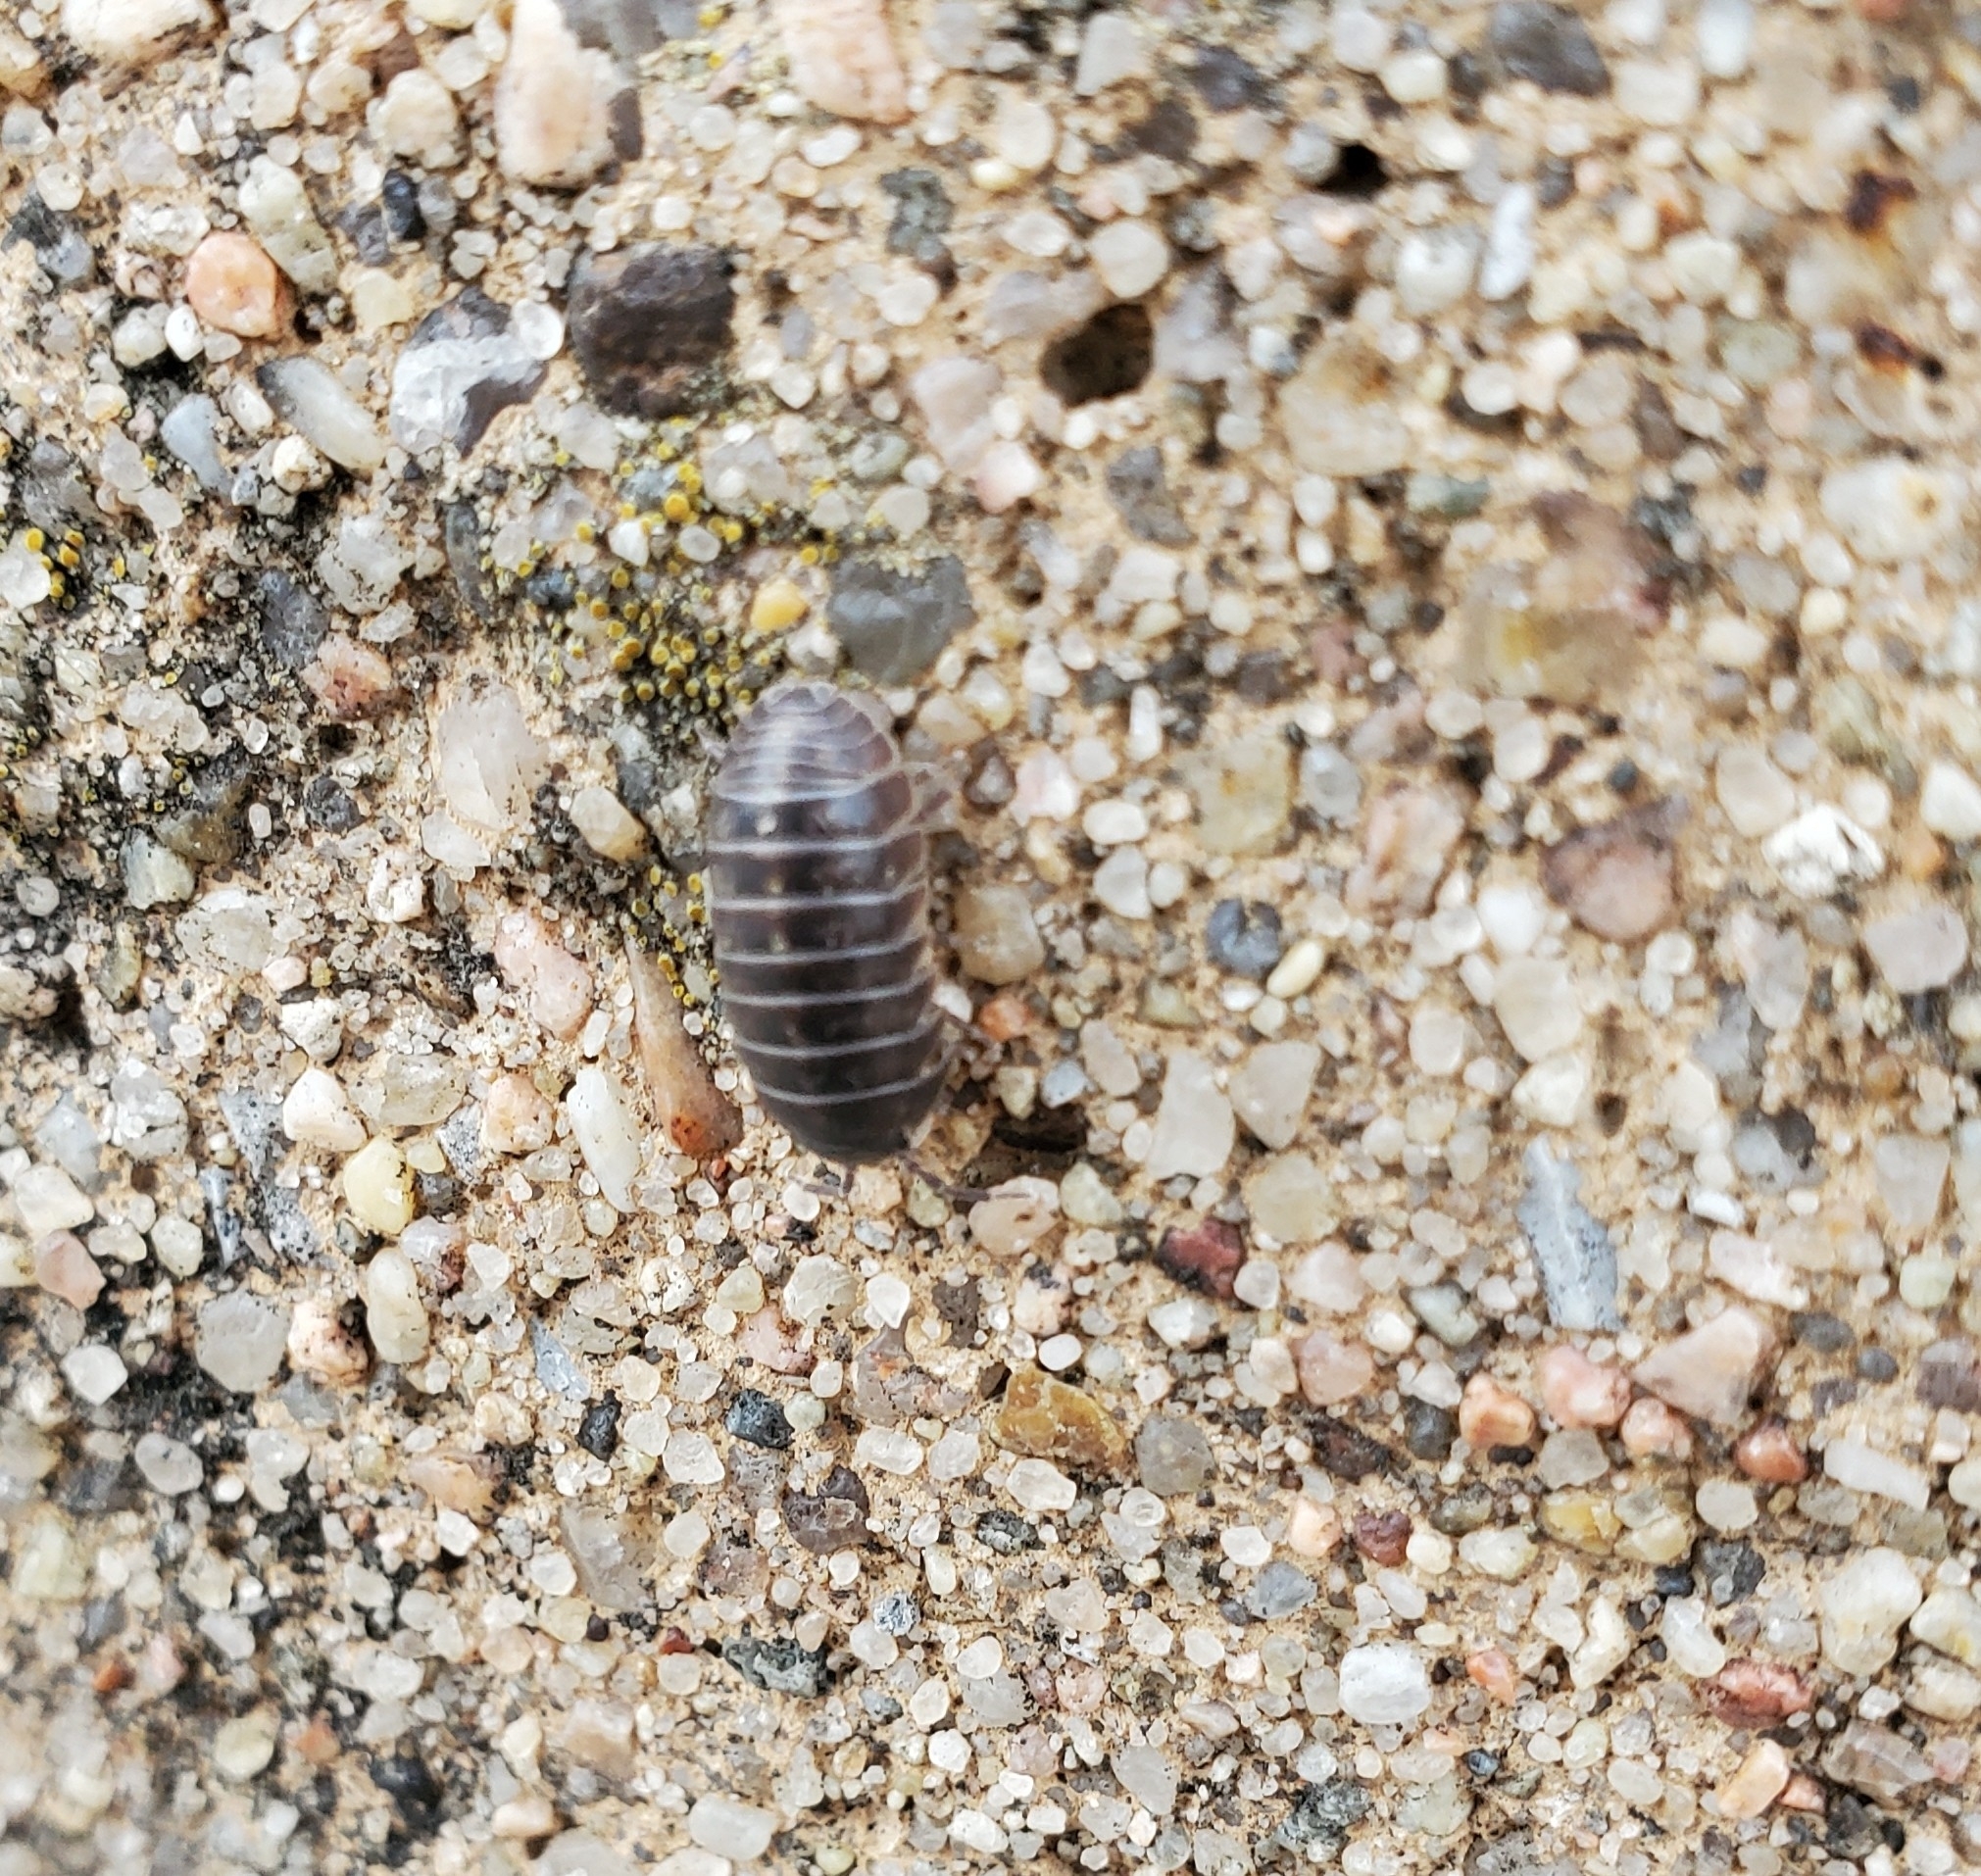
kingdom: Animalia
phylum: Arthropoda
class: Malacostraca
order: Isopoda
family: Armadillidiidae
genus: Armadillidium
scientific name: Armadillidium vulgare
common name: Common pill woodlouse
